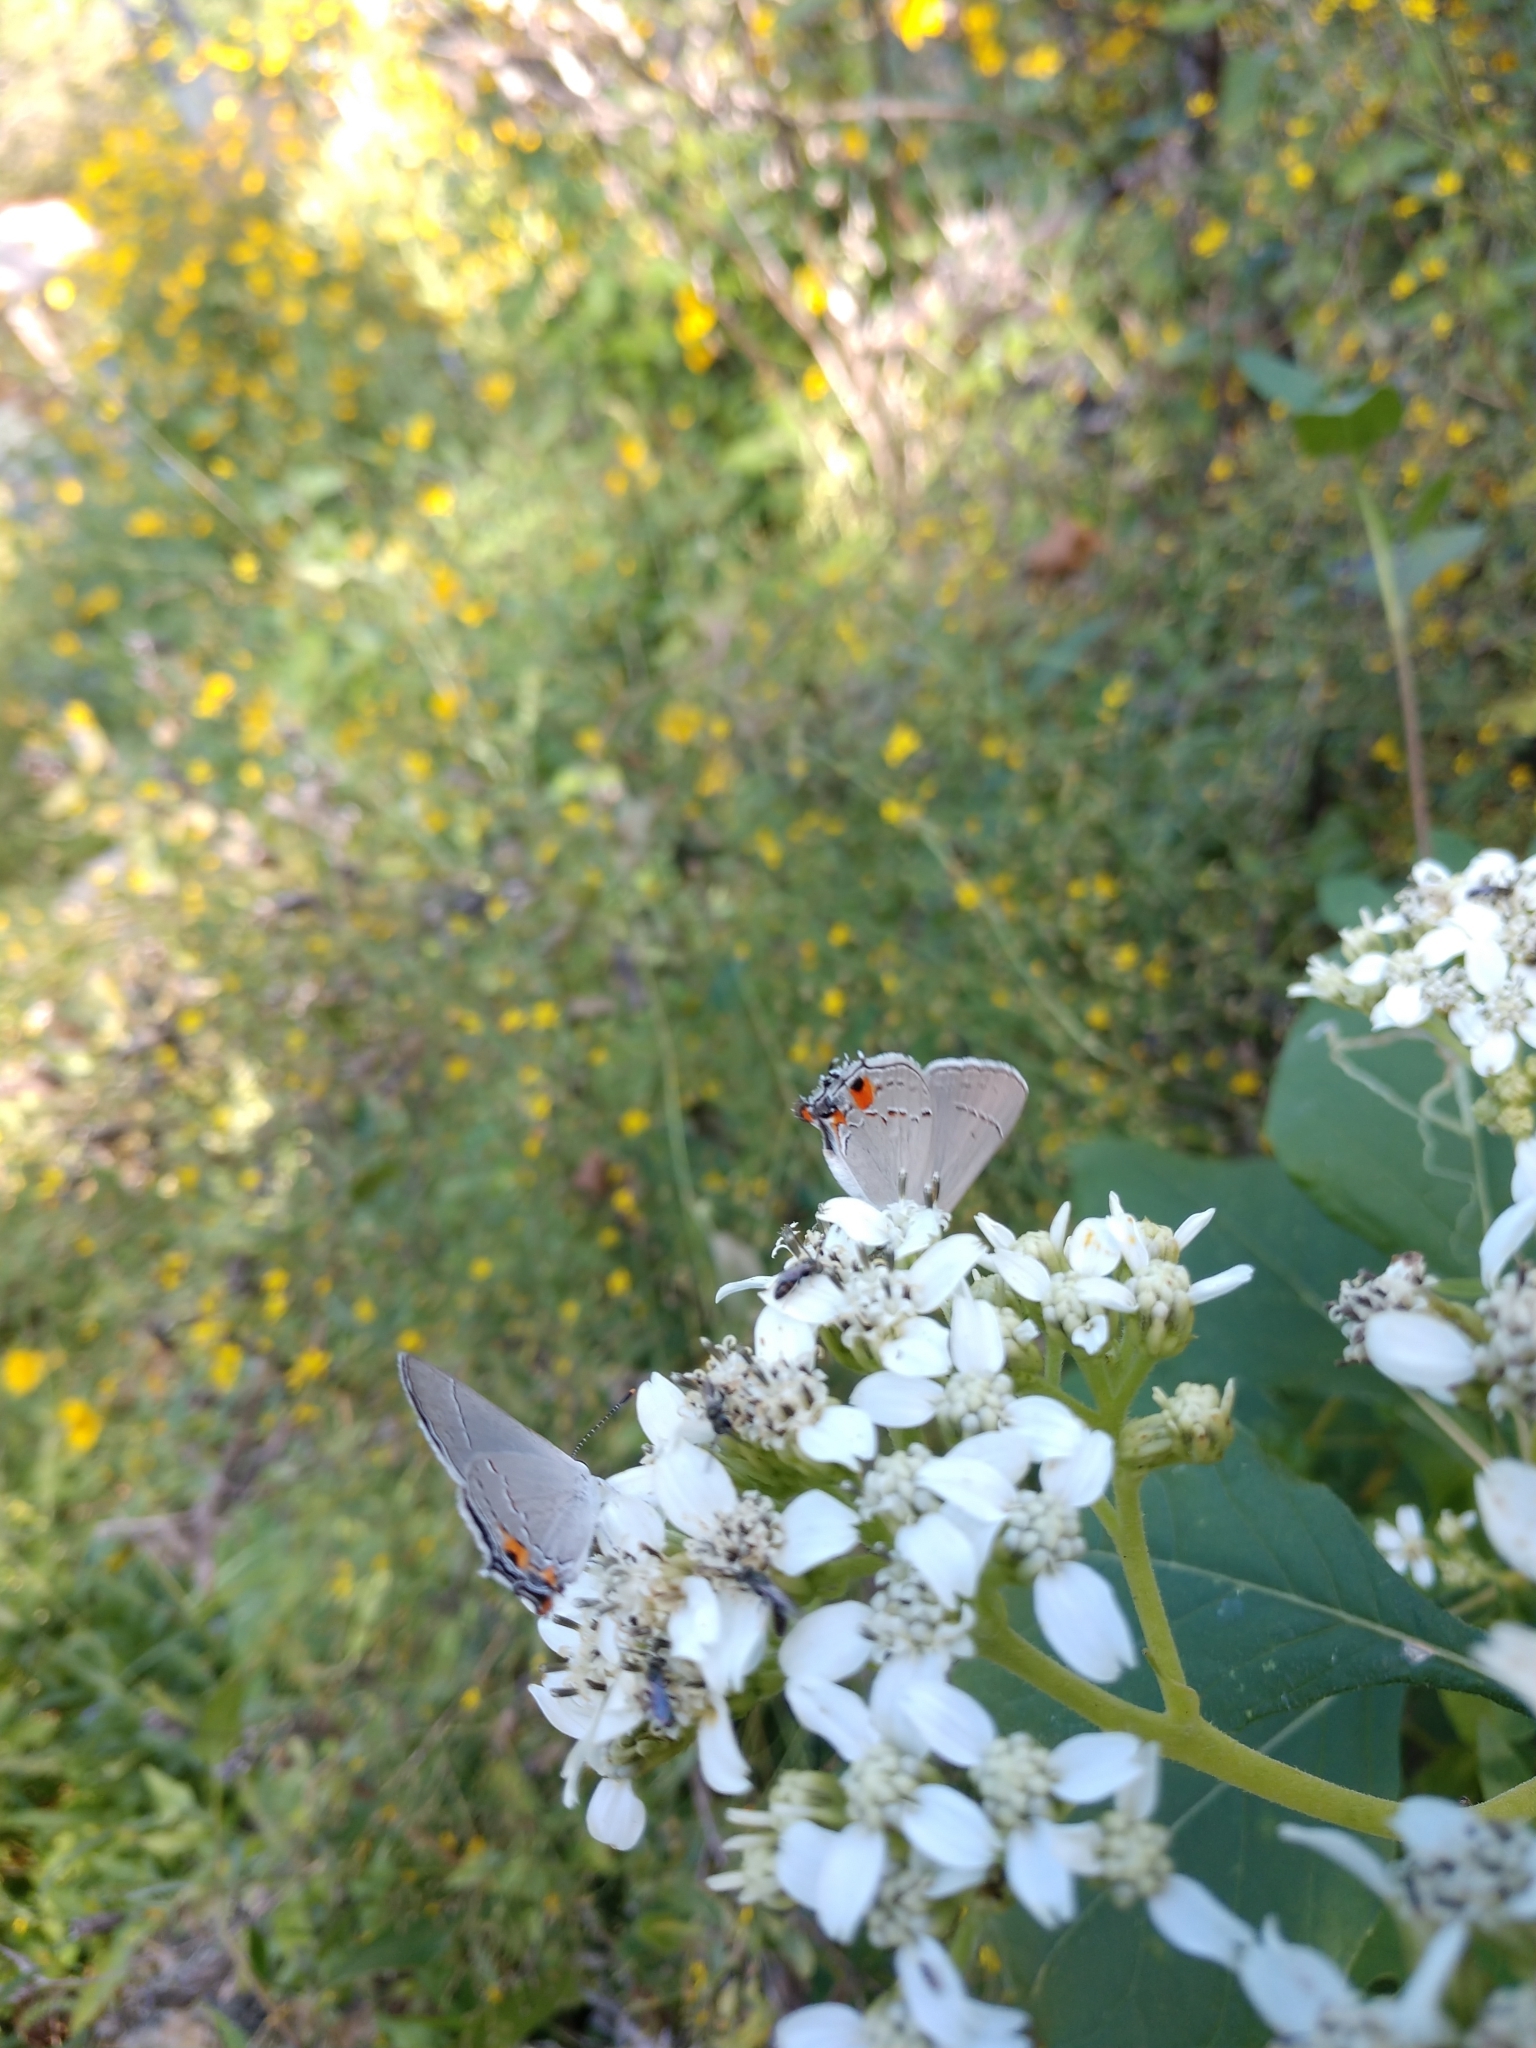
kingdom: Animalia
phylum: Arthropoda
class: Insecta
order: Lepidoptera
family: Lycaenidae
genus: Strymon
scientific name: Strymon melinus
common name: Gray hairstreak
